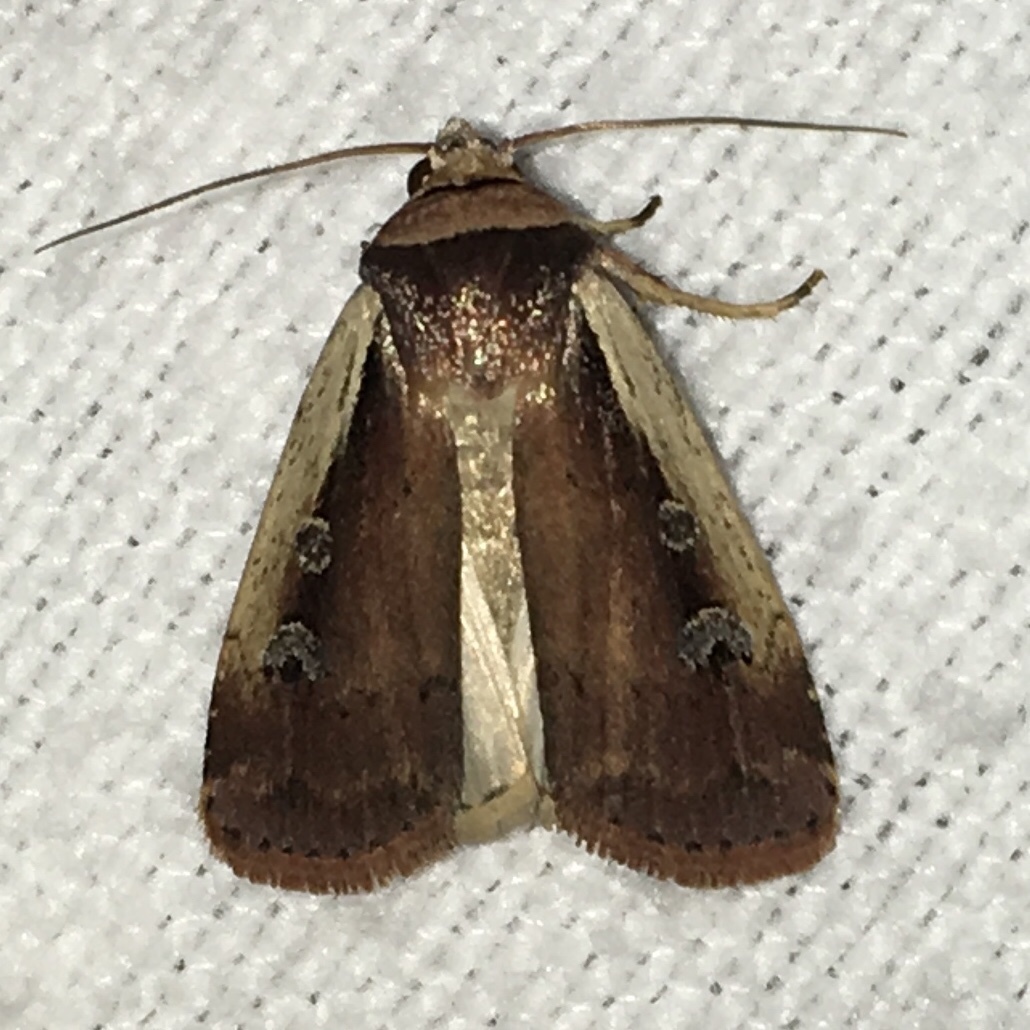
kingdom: Animalia
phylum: Arthropoda
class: Insecta
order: Lepidoptera
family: Noctuidae
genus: Ochropleura
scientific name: Ochropleura implecta
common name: Flame-shouldered dart
